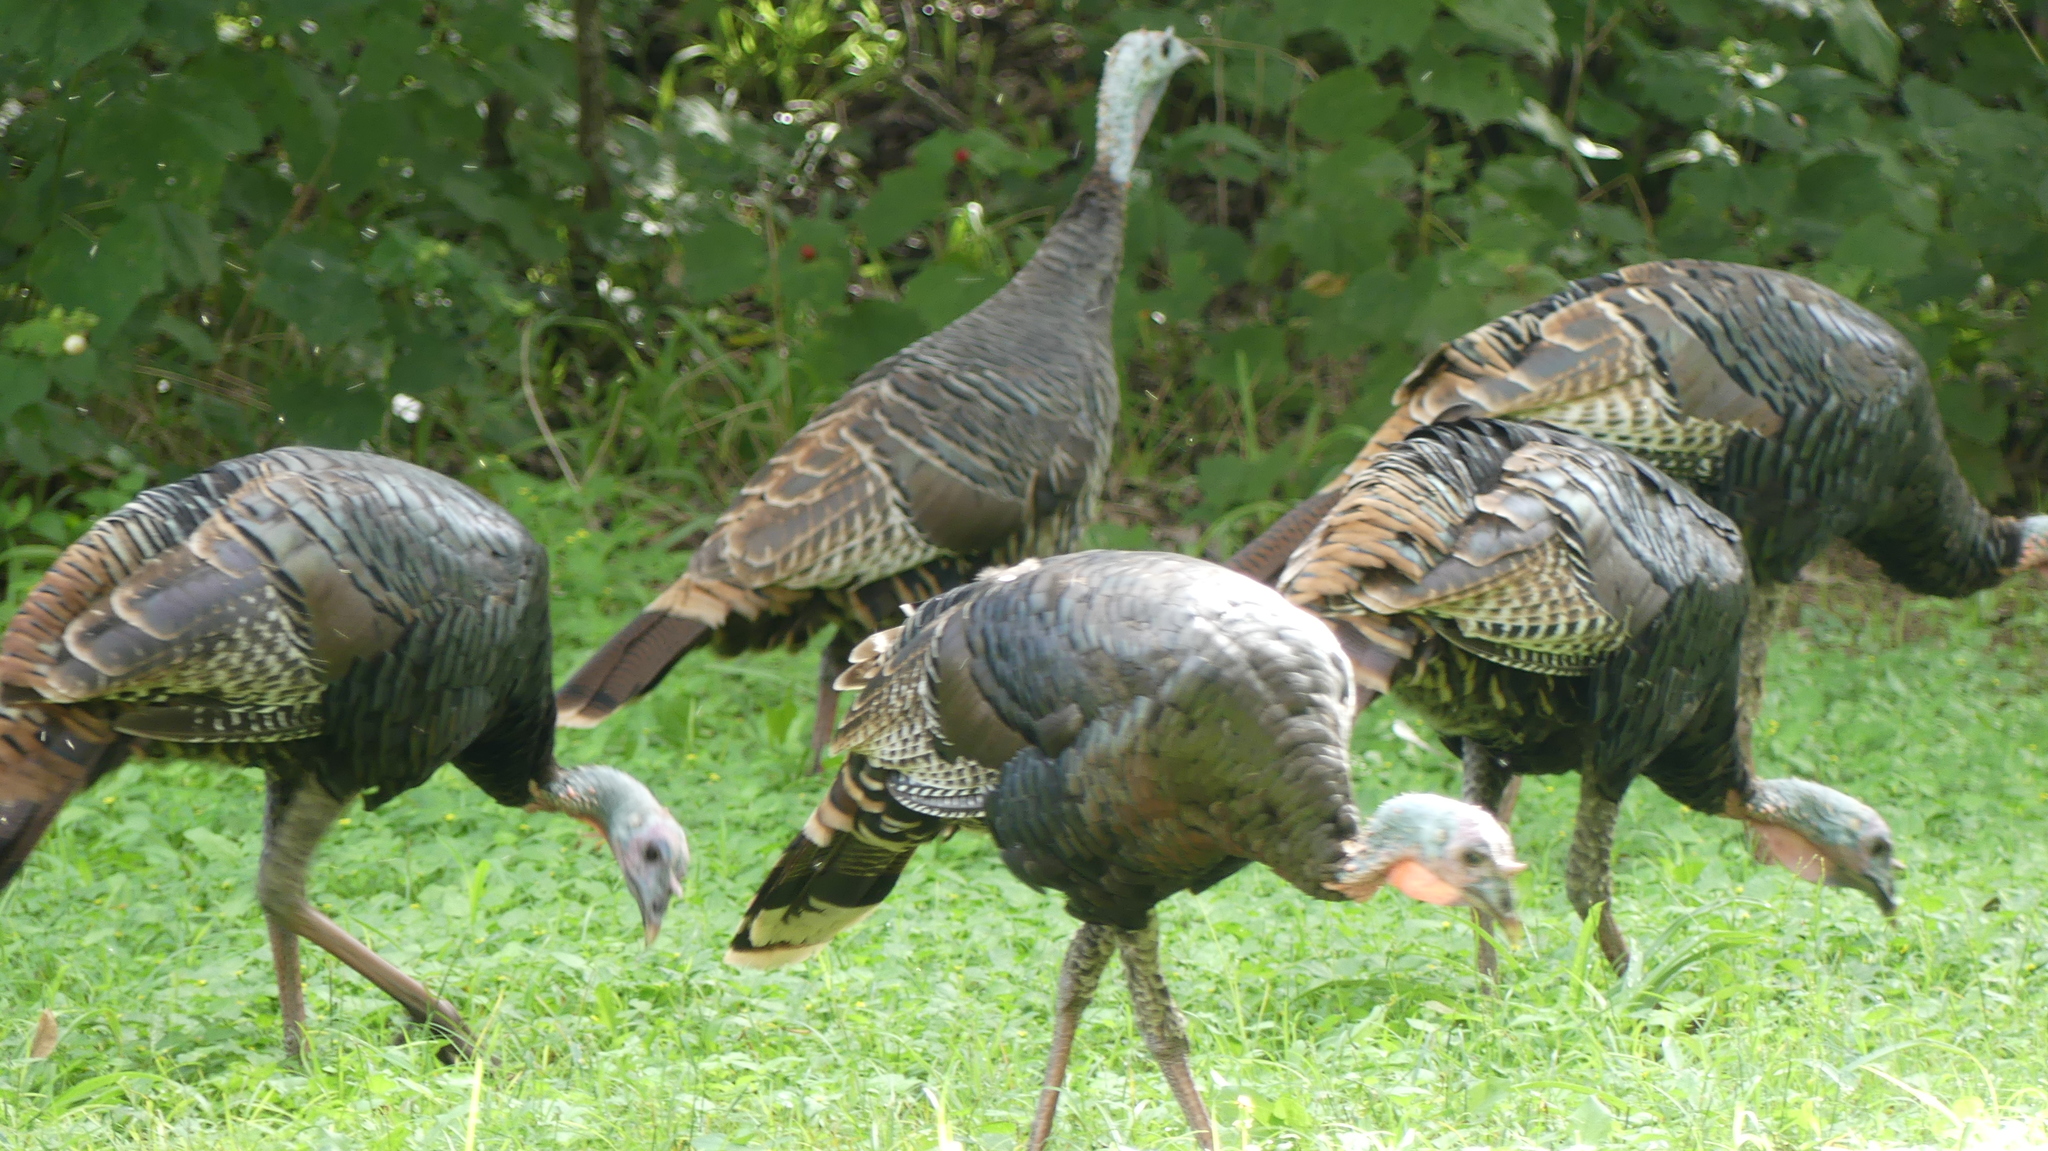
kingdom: Animalia
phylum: Chordata
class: Aves
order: Galliformes
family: Phasianidae
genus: Meleagris
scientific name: Meleagris gallopavo
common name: Wild turkey
